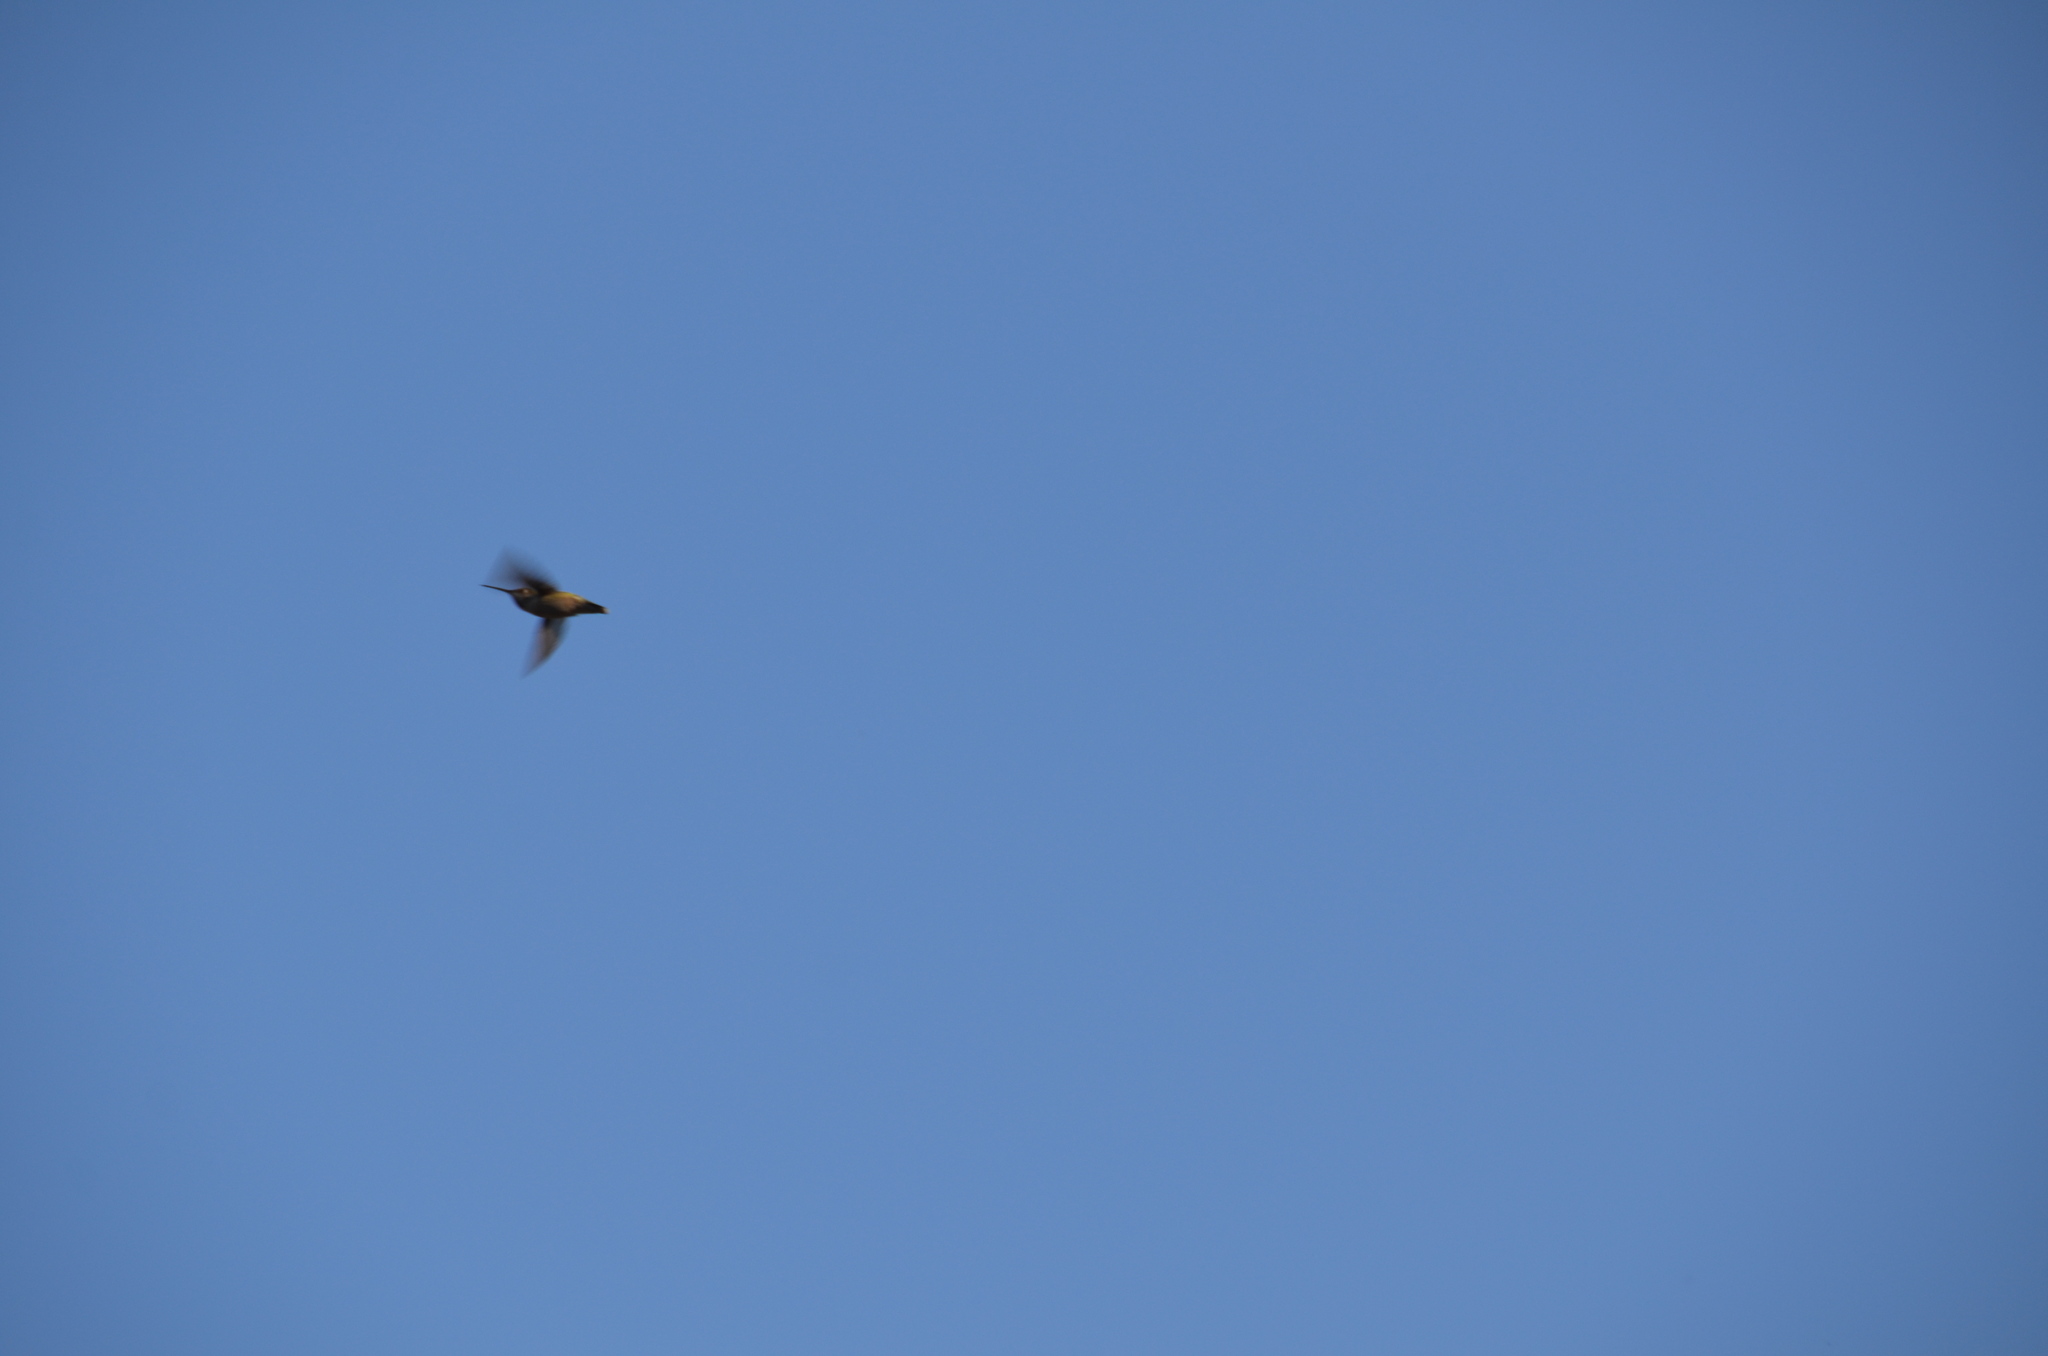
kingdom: Animalia
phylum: Chordata
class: Aves
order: Apodiformes
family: Trochilidae
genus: Calypte
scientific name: Calypte anna
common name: Anna's hummingbird
